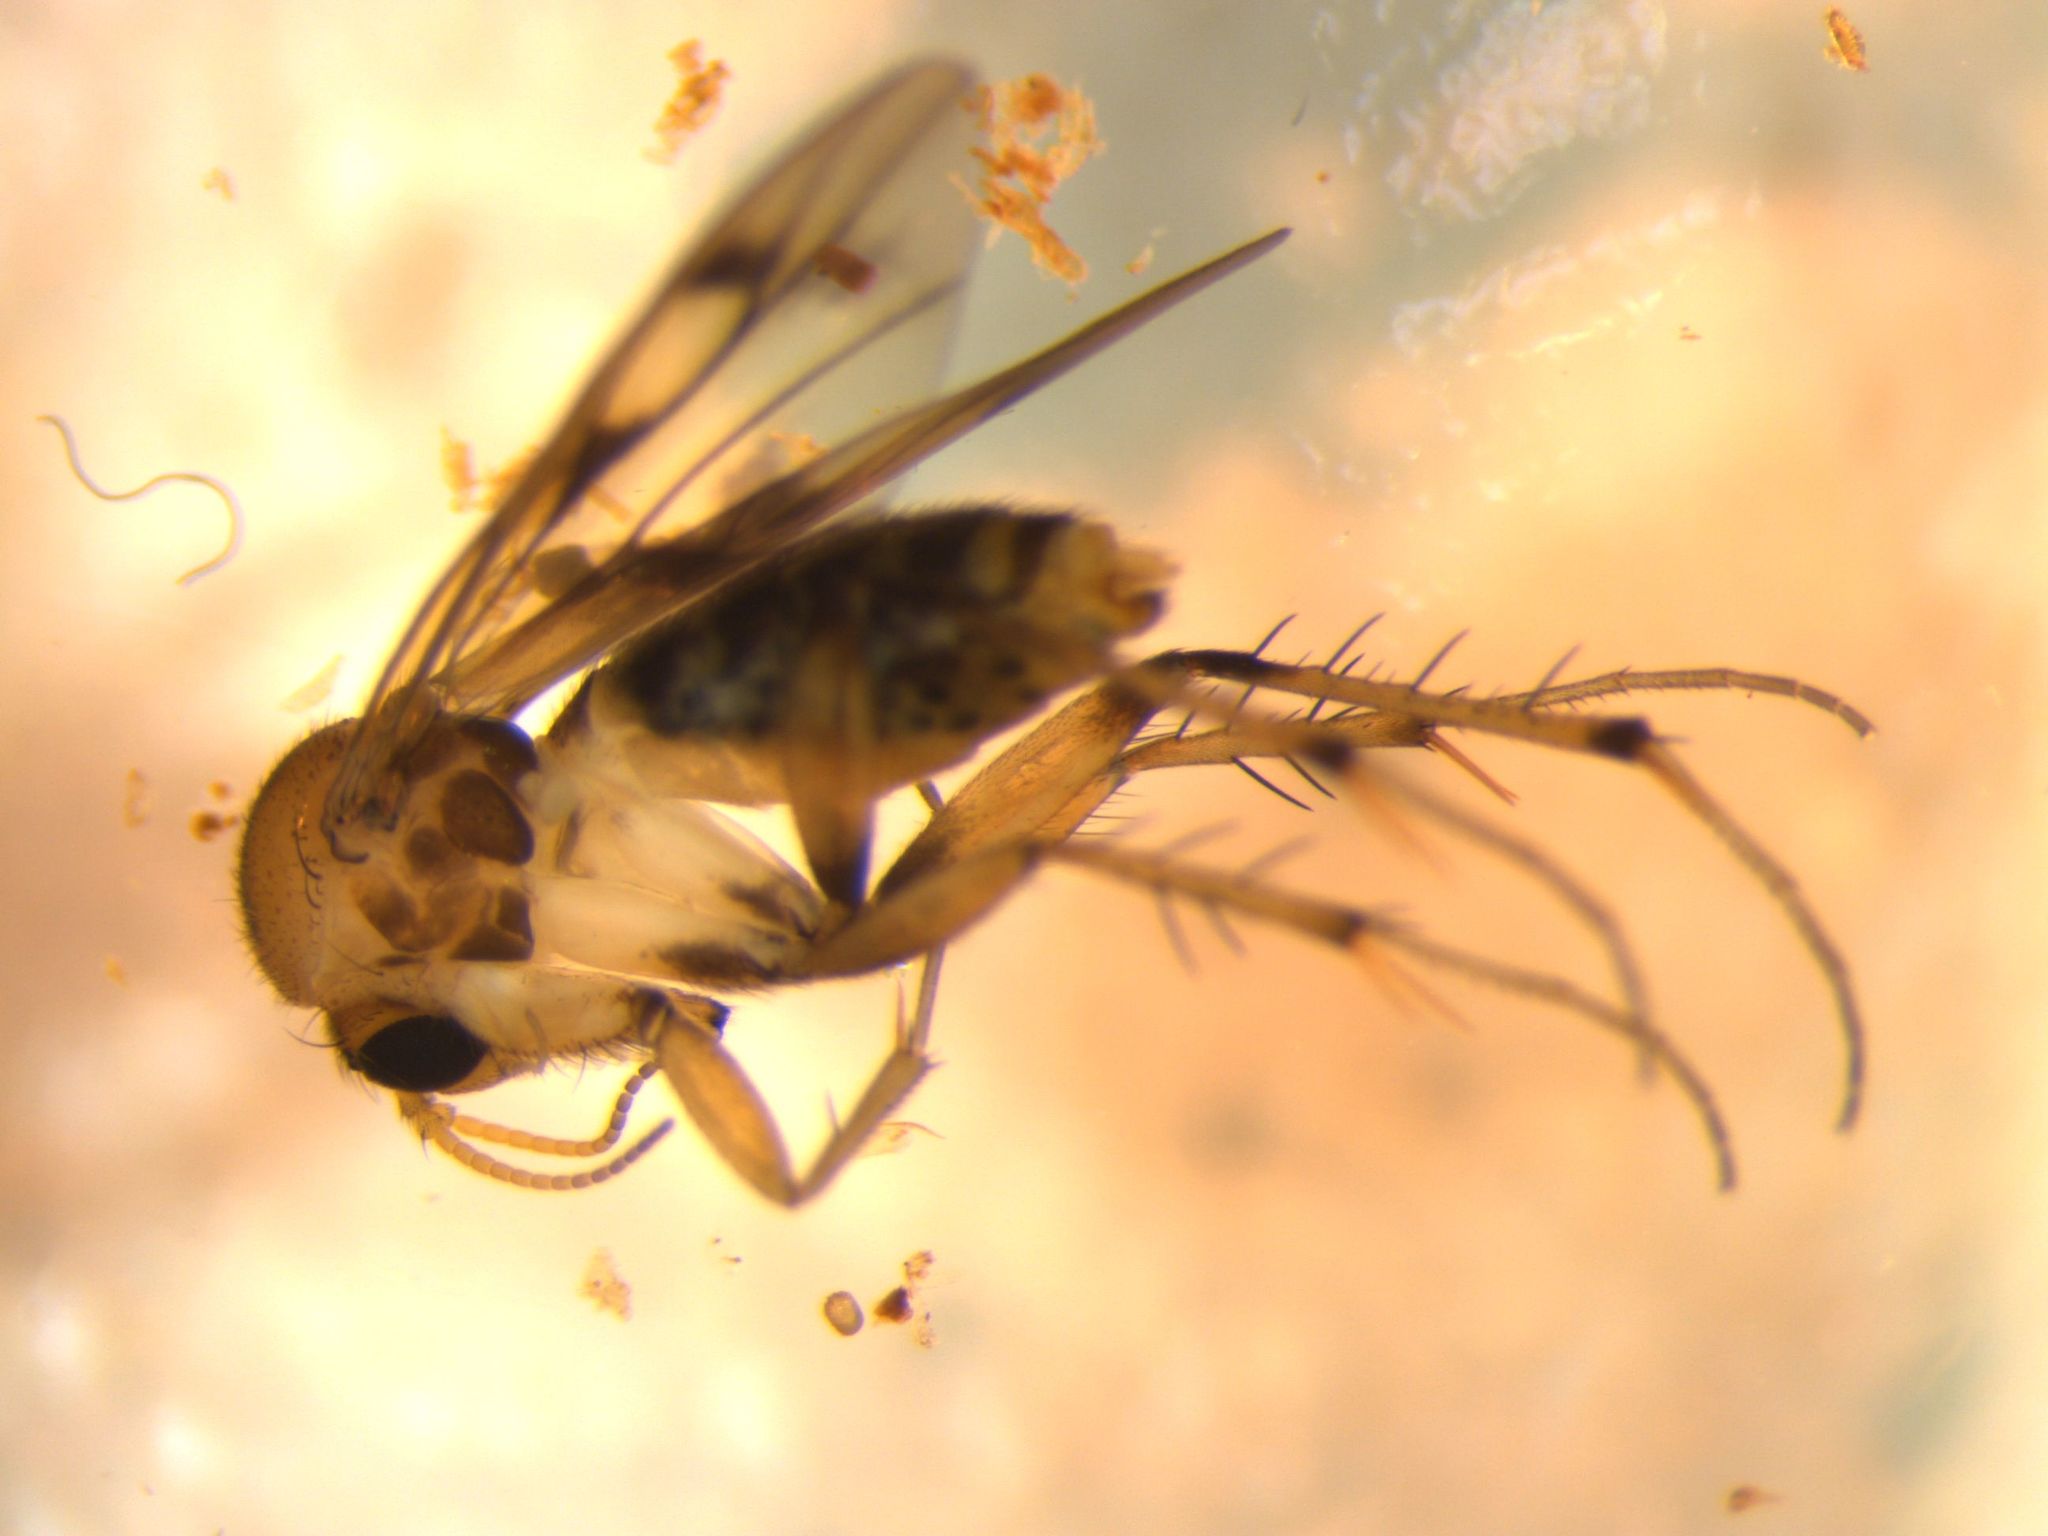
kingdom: Animalia
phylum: Arthropoda
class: Insecta
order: Diptera
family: Mycetophilidae
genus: Anomalomyia
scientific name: Anomalomyia guttata
